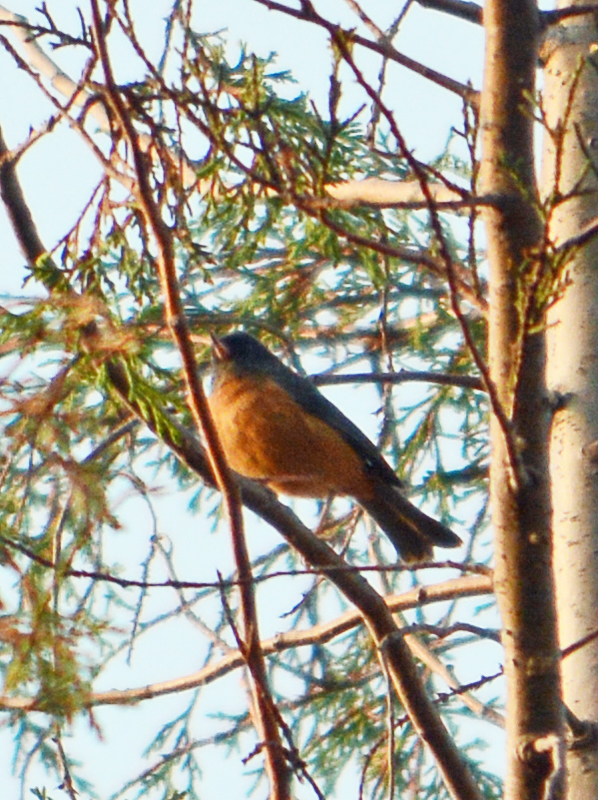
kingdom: Animalia
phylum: Chordata
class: Aves
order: Passeriformes
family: Thraupidae
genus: Diglossa
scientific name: Diglossa baritula
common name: Cinnamon-bellied flowerpiercer
